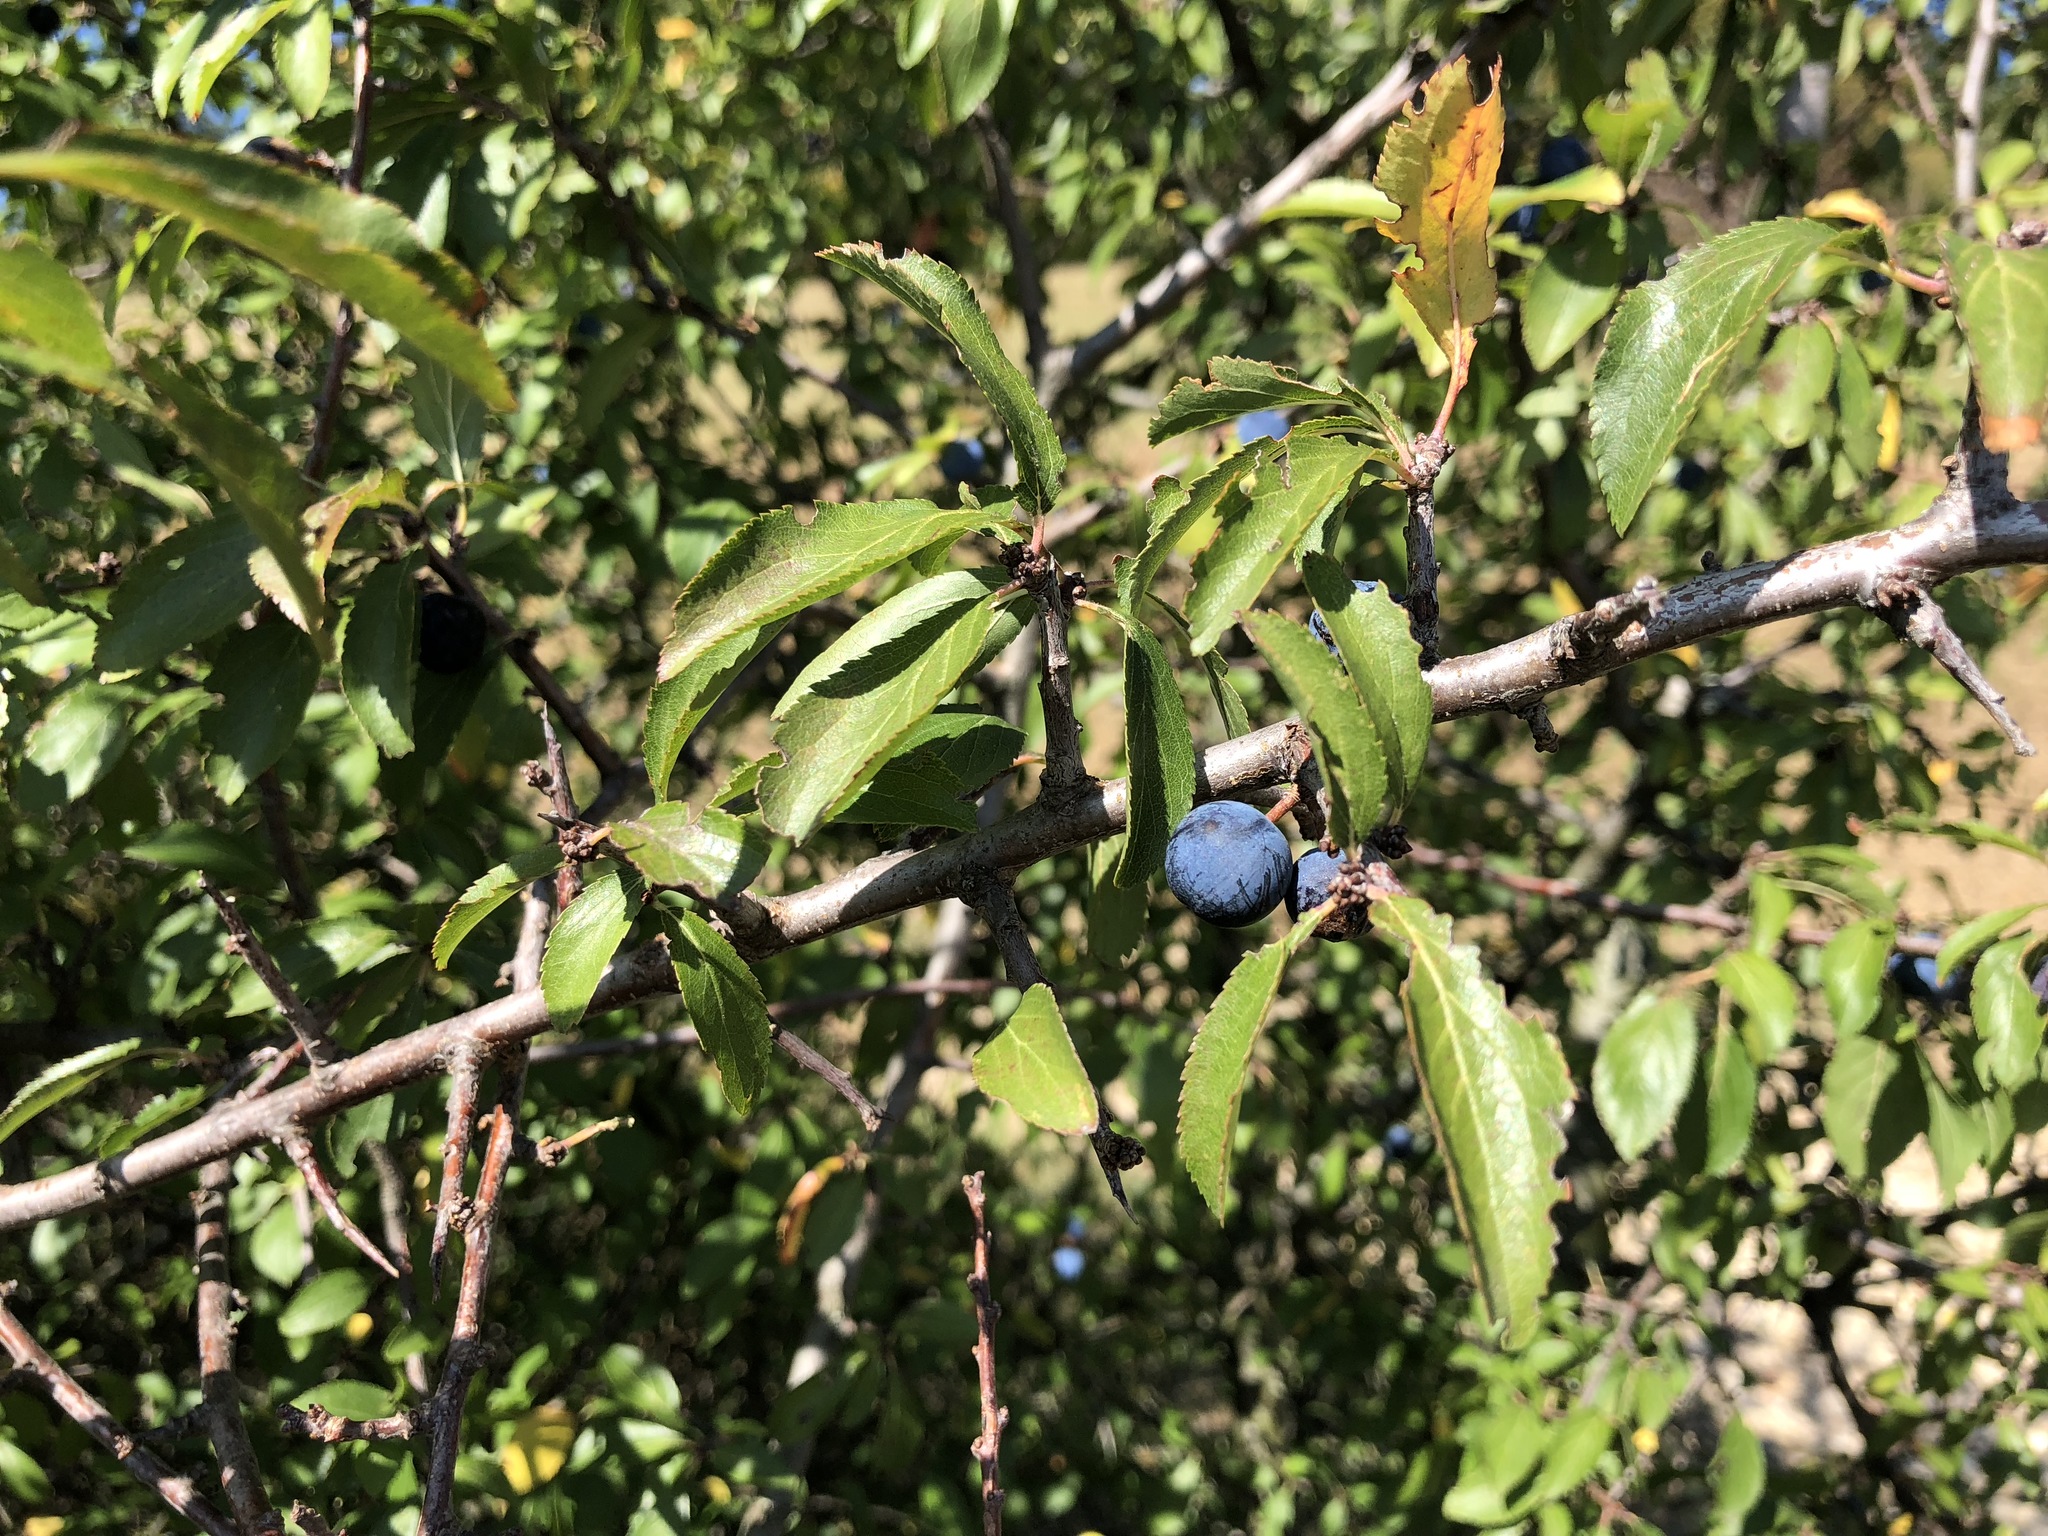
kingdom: Plantae
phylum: Tracheophyta
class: Magnoliopsida
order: Rosales
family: Rosaceae
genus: Prunus
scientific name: Prunus spinosa
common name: Blackthorn
